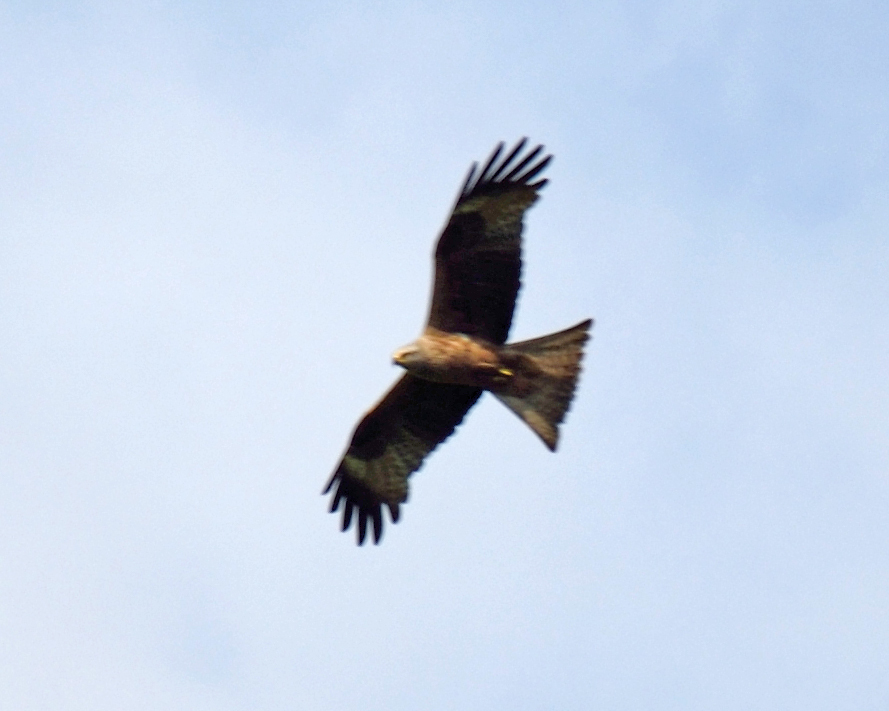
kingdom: Animalia
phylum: Chordata
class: Aves
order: Accipitriformes
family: Accipitridae
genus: Milvus
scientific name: Milvus migrans
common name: Black kite
